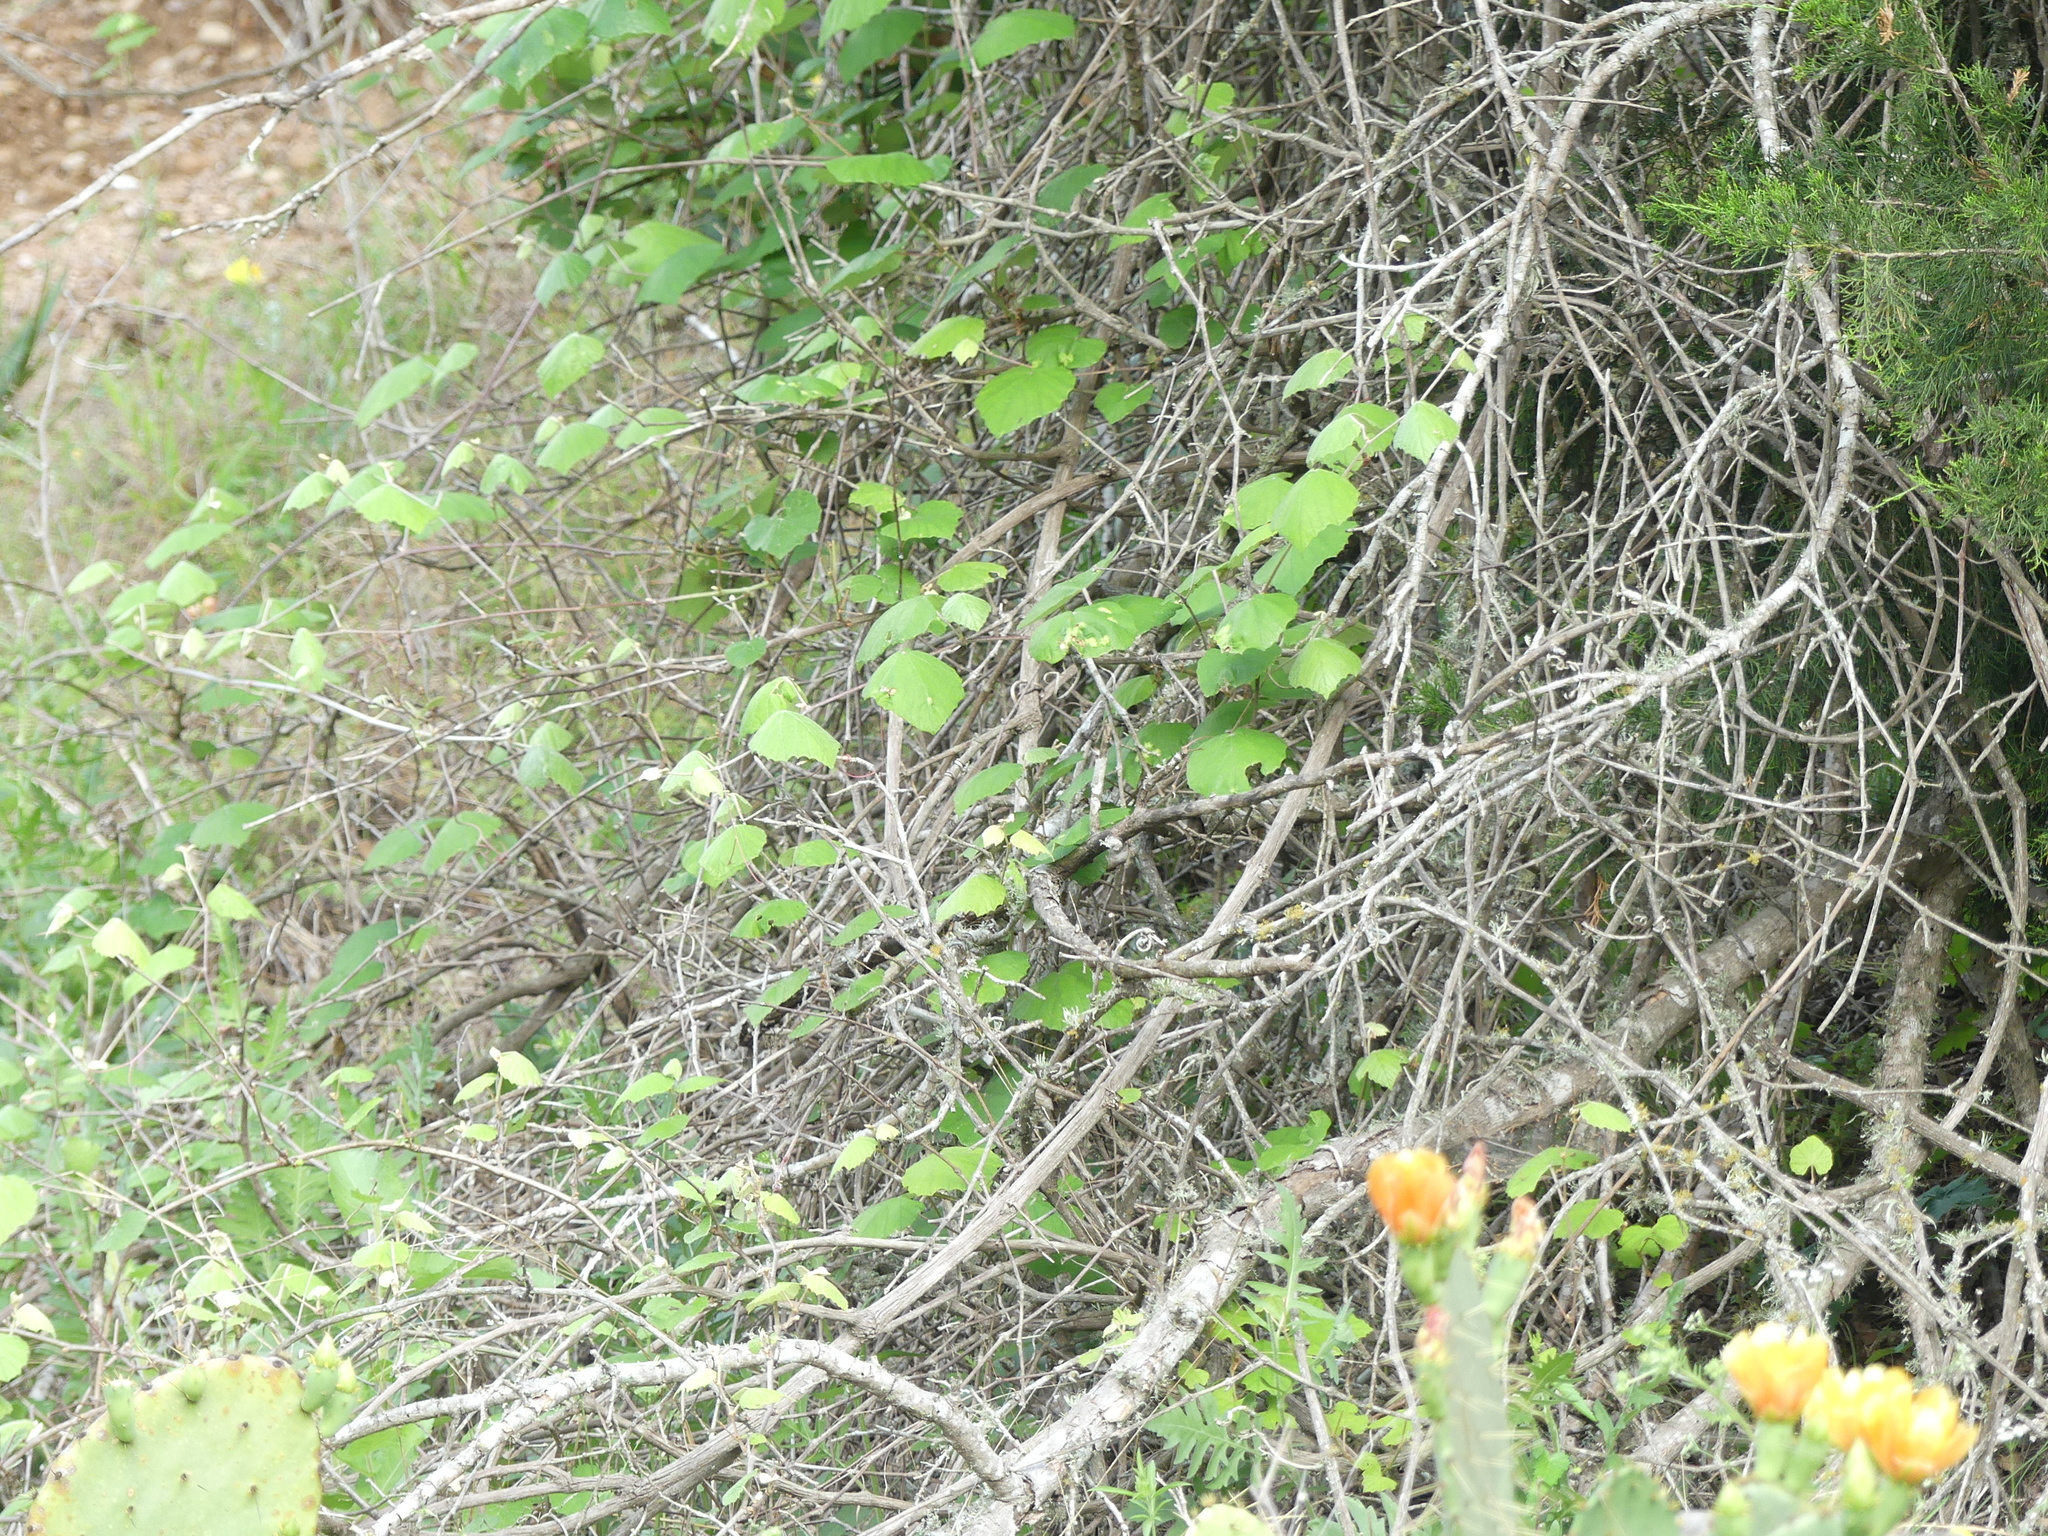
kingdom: Plantae
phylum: Tracheophyta
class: Magnoliopsida
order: Vitales
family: Vitaceae
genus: Vitis
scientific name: Vitis mustangensis
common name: Mustang grape
